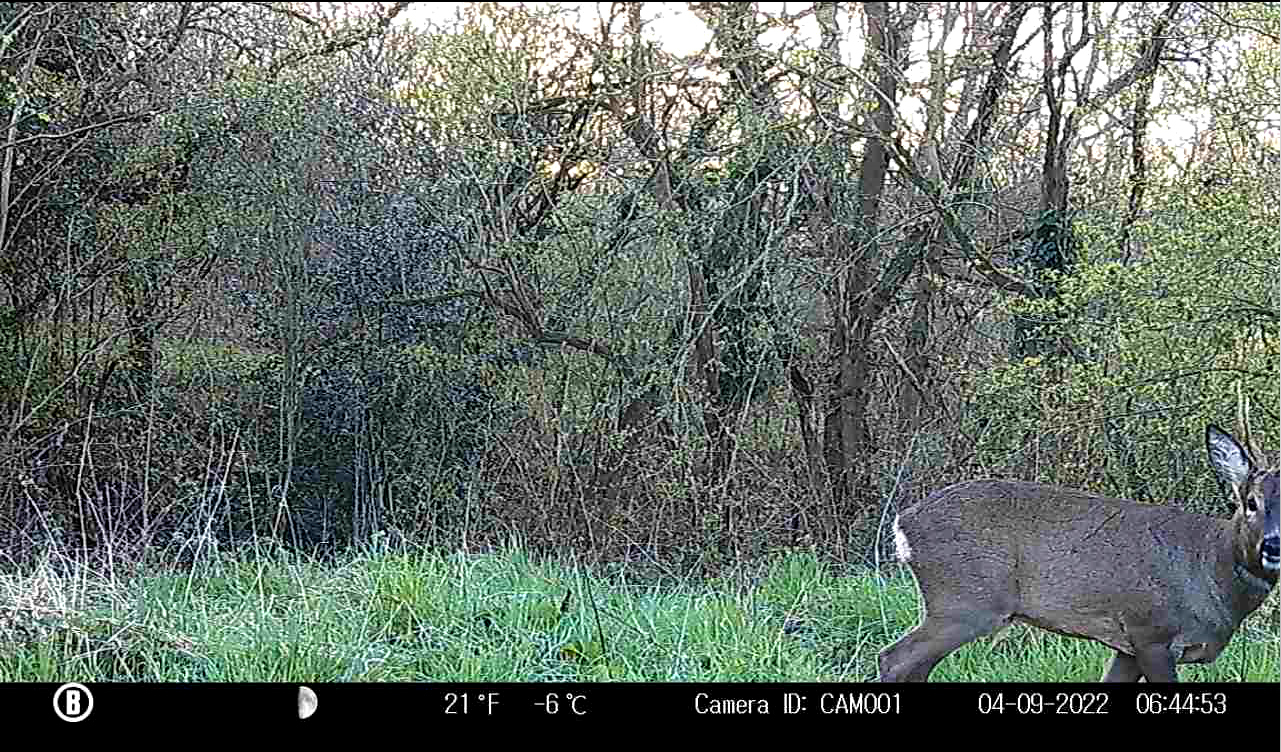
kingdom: Animalia
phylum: Chordata
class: Mammalia
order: Artiodactyla
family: Cervidae
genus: Capreolus
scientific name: Capreolus capreolus
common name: Western roe deer
